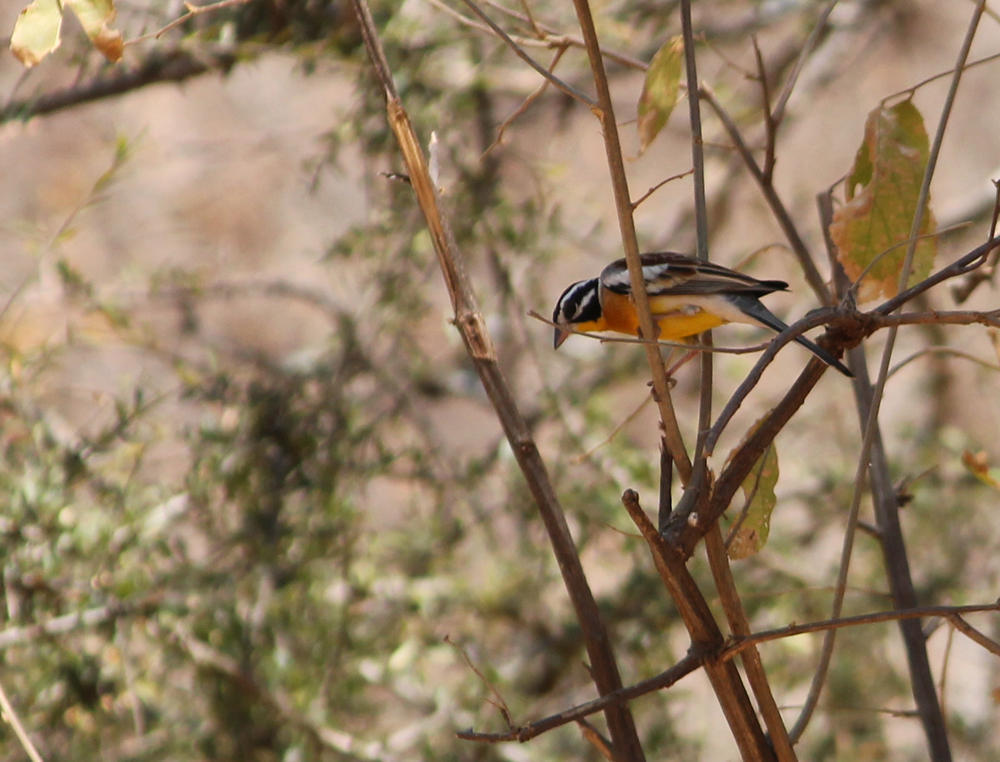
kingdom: Animalia
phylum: Chordata
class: Aves
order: Passeriformes
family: Emberizidae
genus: Emberiza
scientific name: Emberiza flaviventris
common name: Golden-breasted bunting
